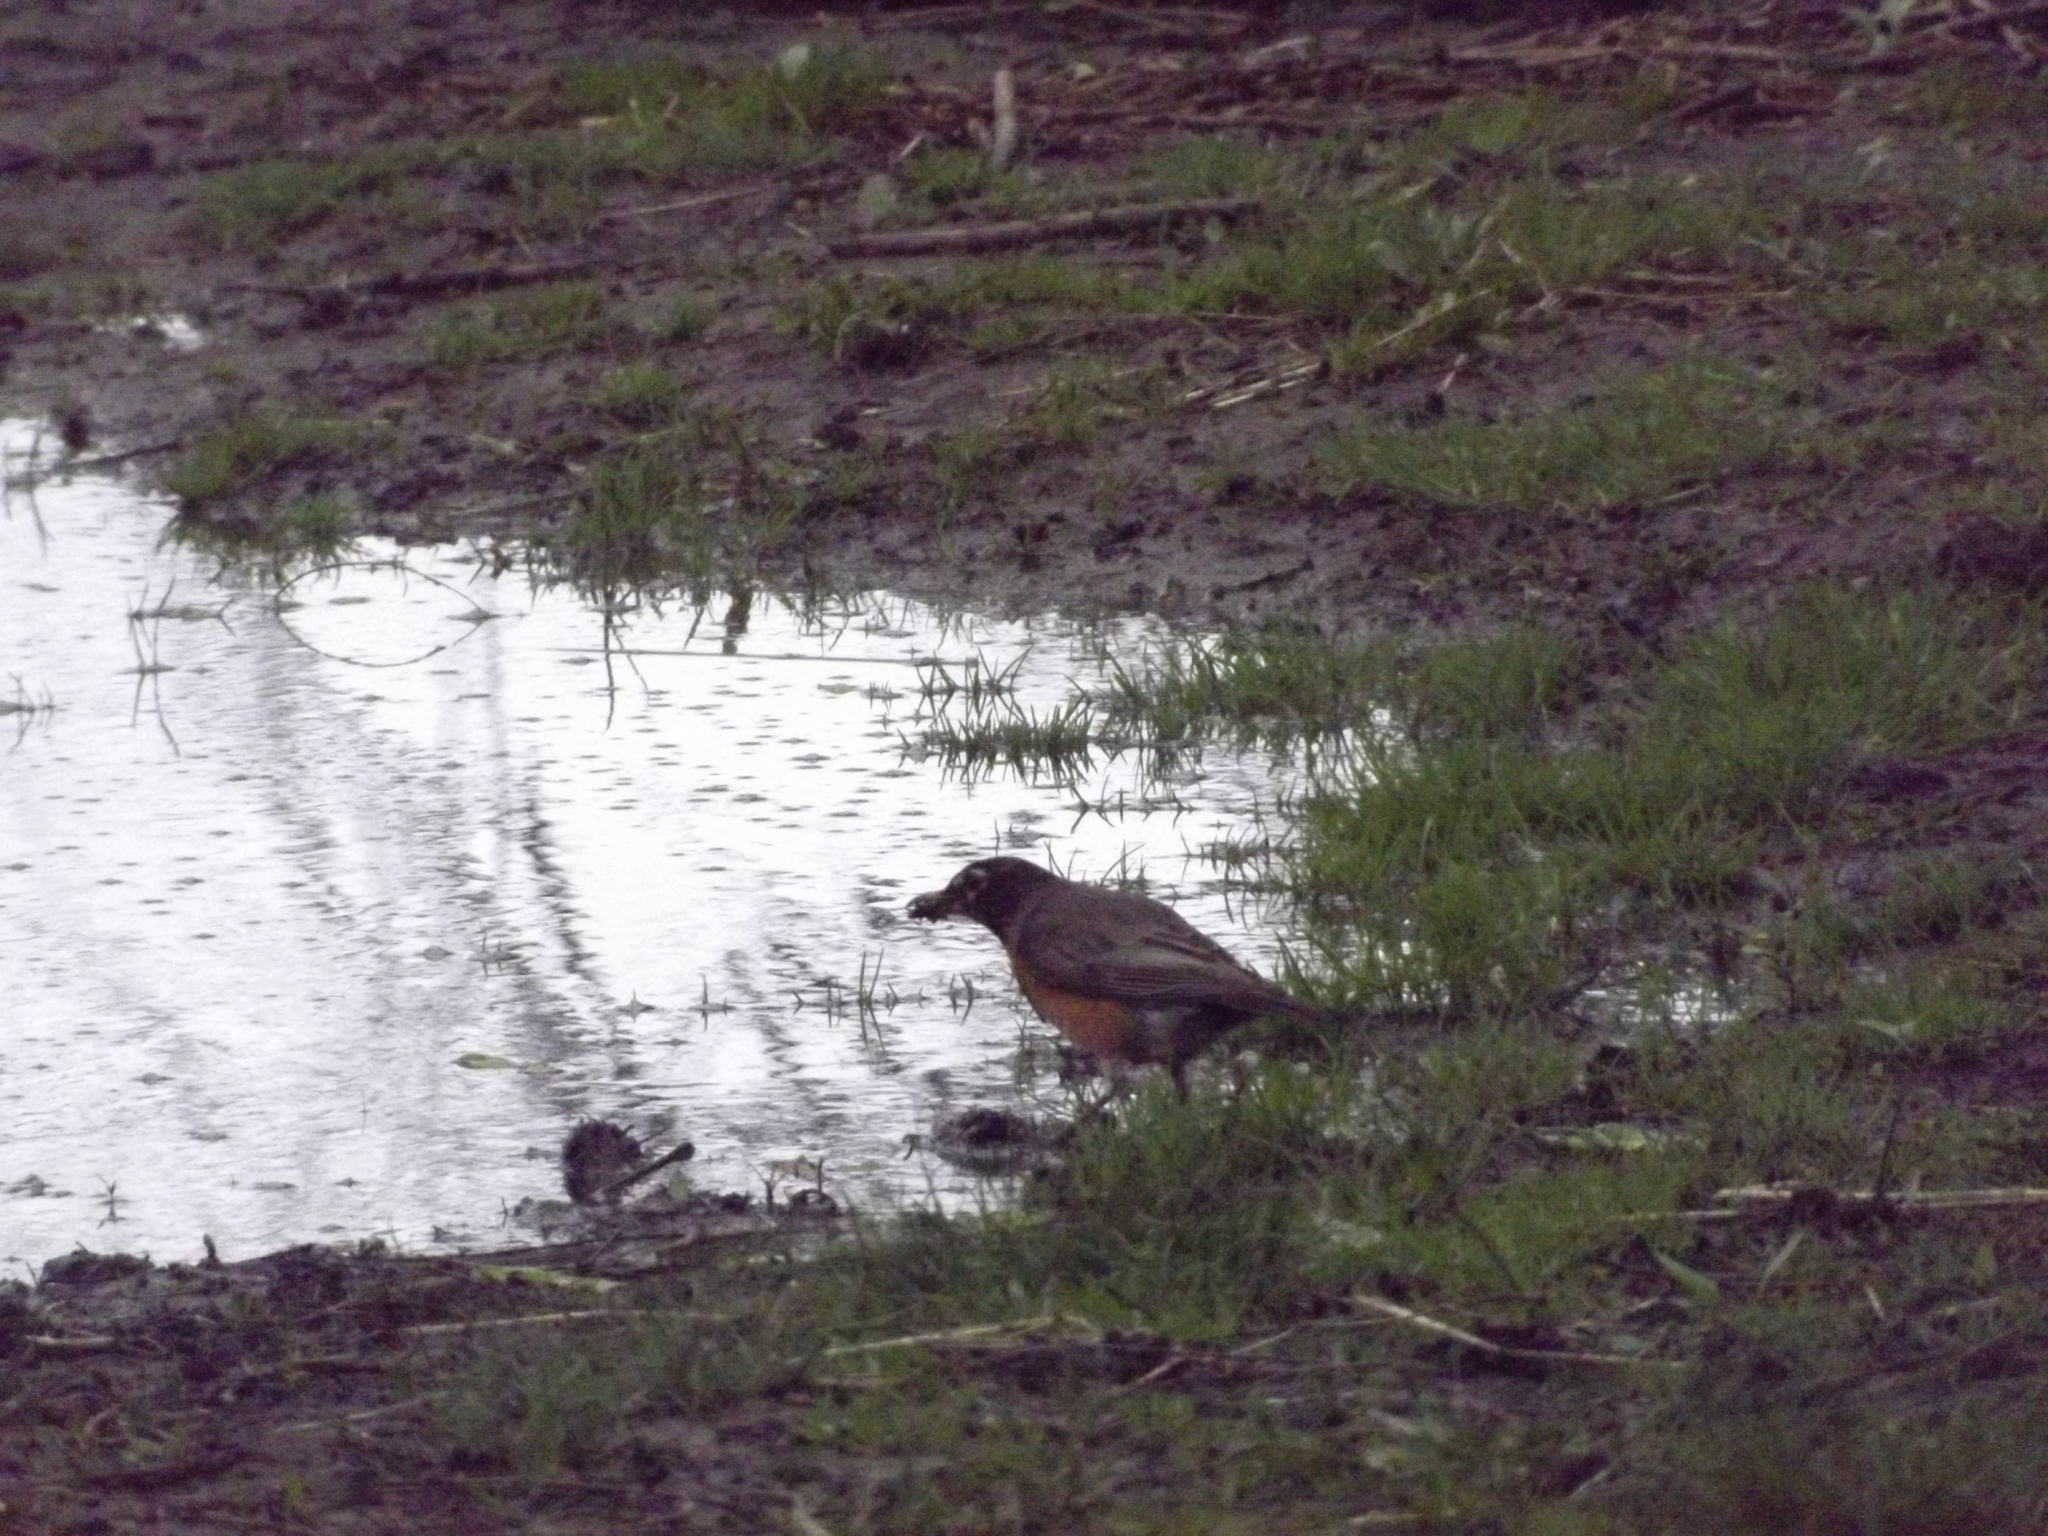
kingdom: Animalia
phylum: Chordata
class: Aves
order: Passeriformes
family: Turdidae
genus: Turdus
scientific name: Turdus migratorius
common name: American robin
